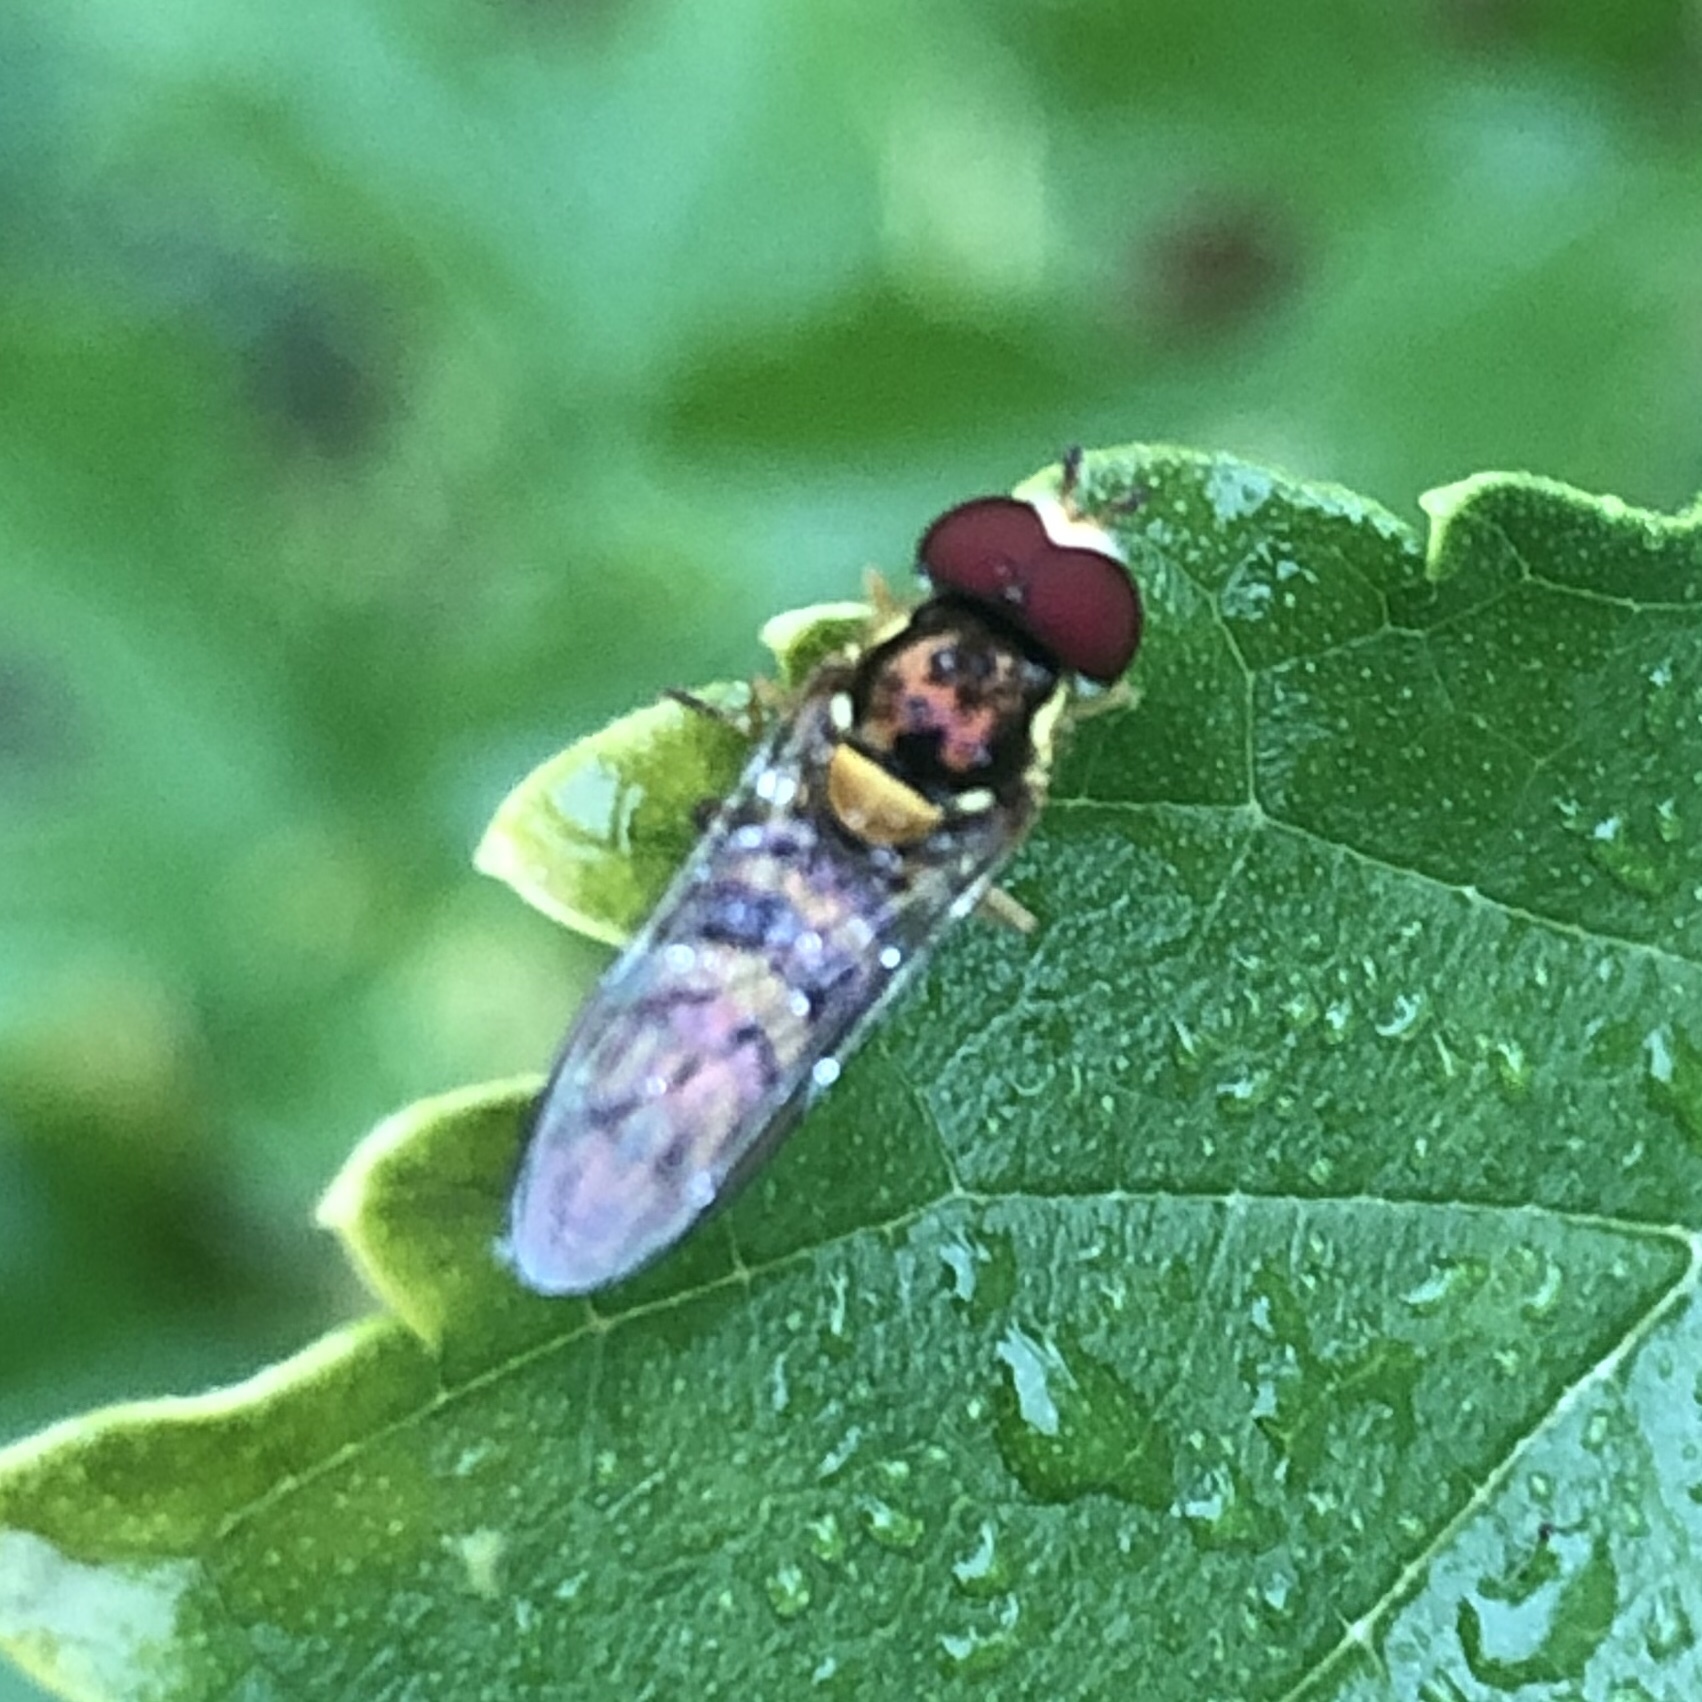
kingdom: Animalia
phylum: Arthropoda
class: Insecta
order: Diptera
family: Syrphidae
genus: Allograpta
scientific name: Allograpta obliqua
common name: Common oblique syrphid
